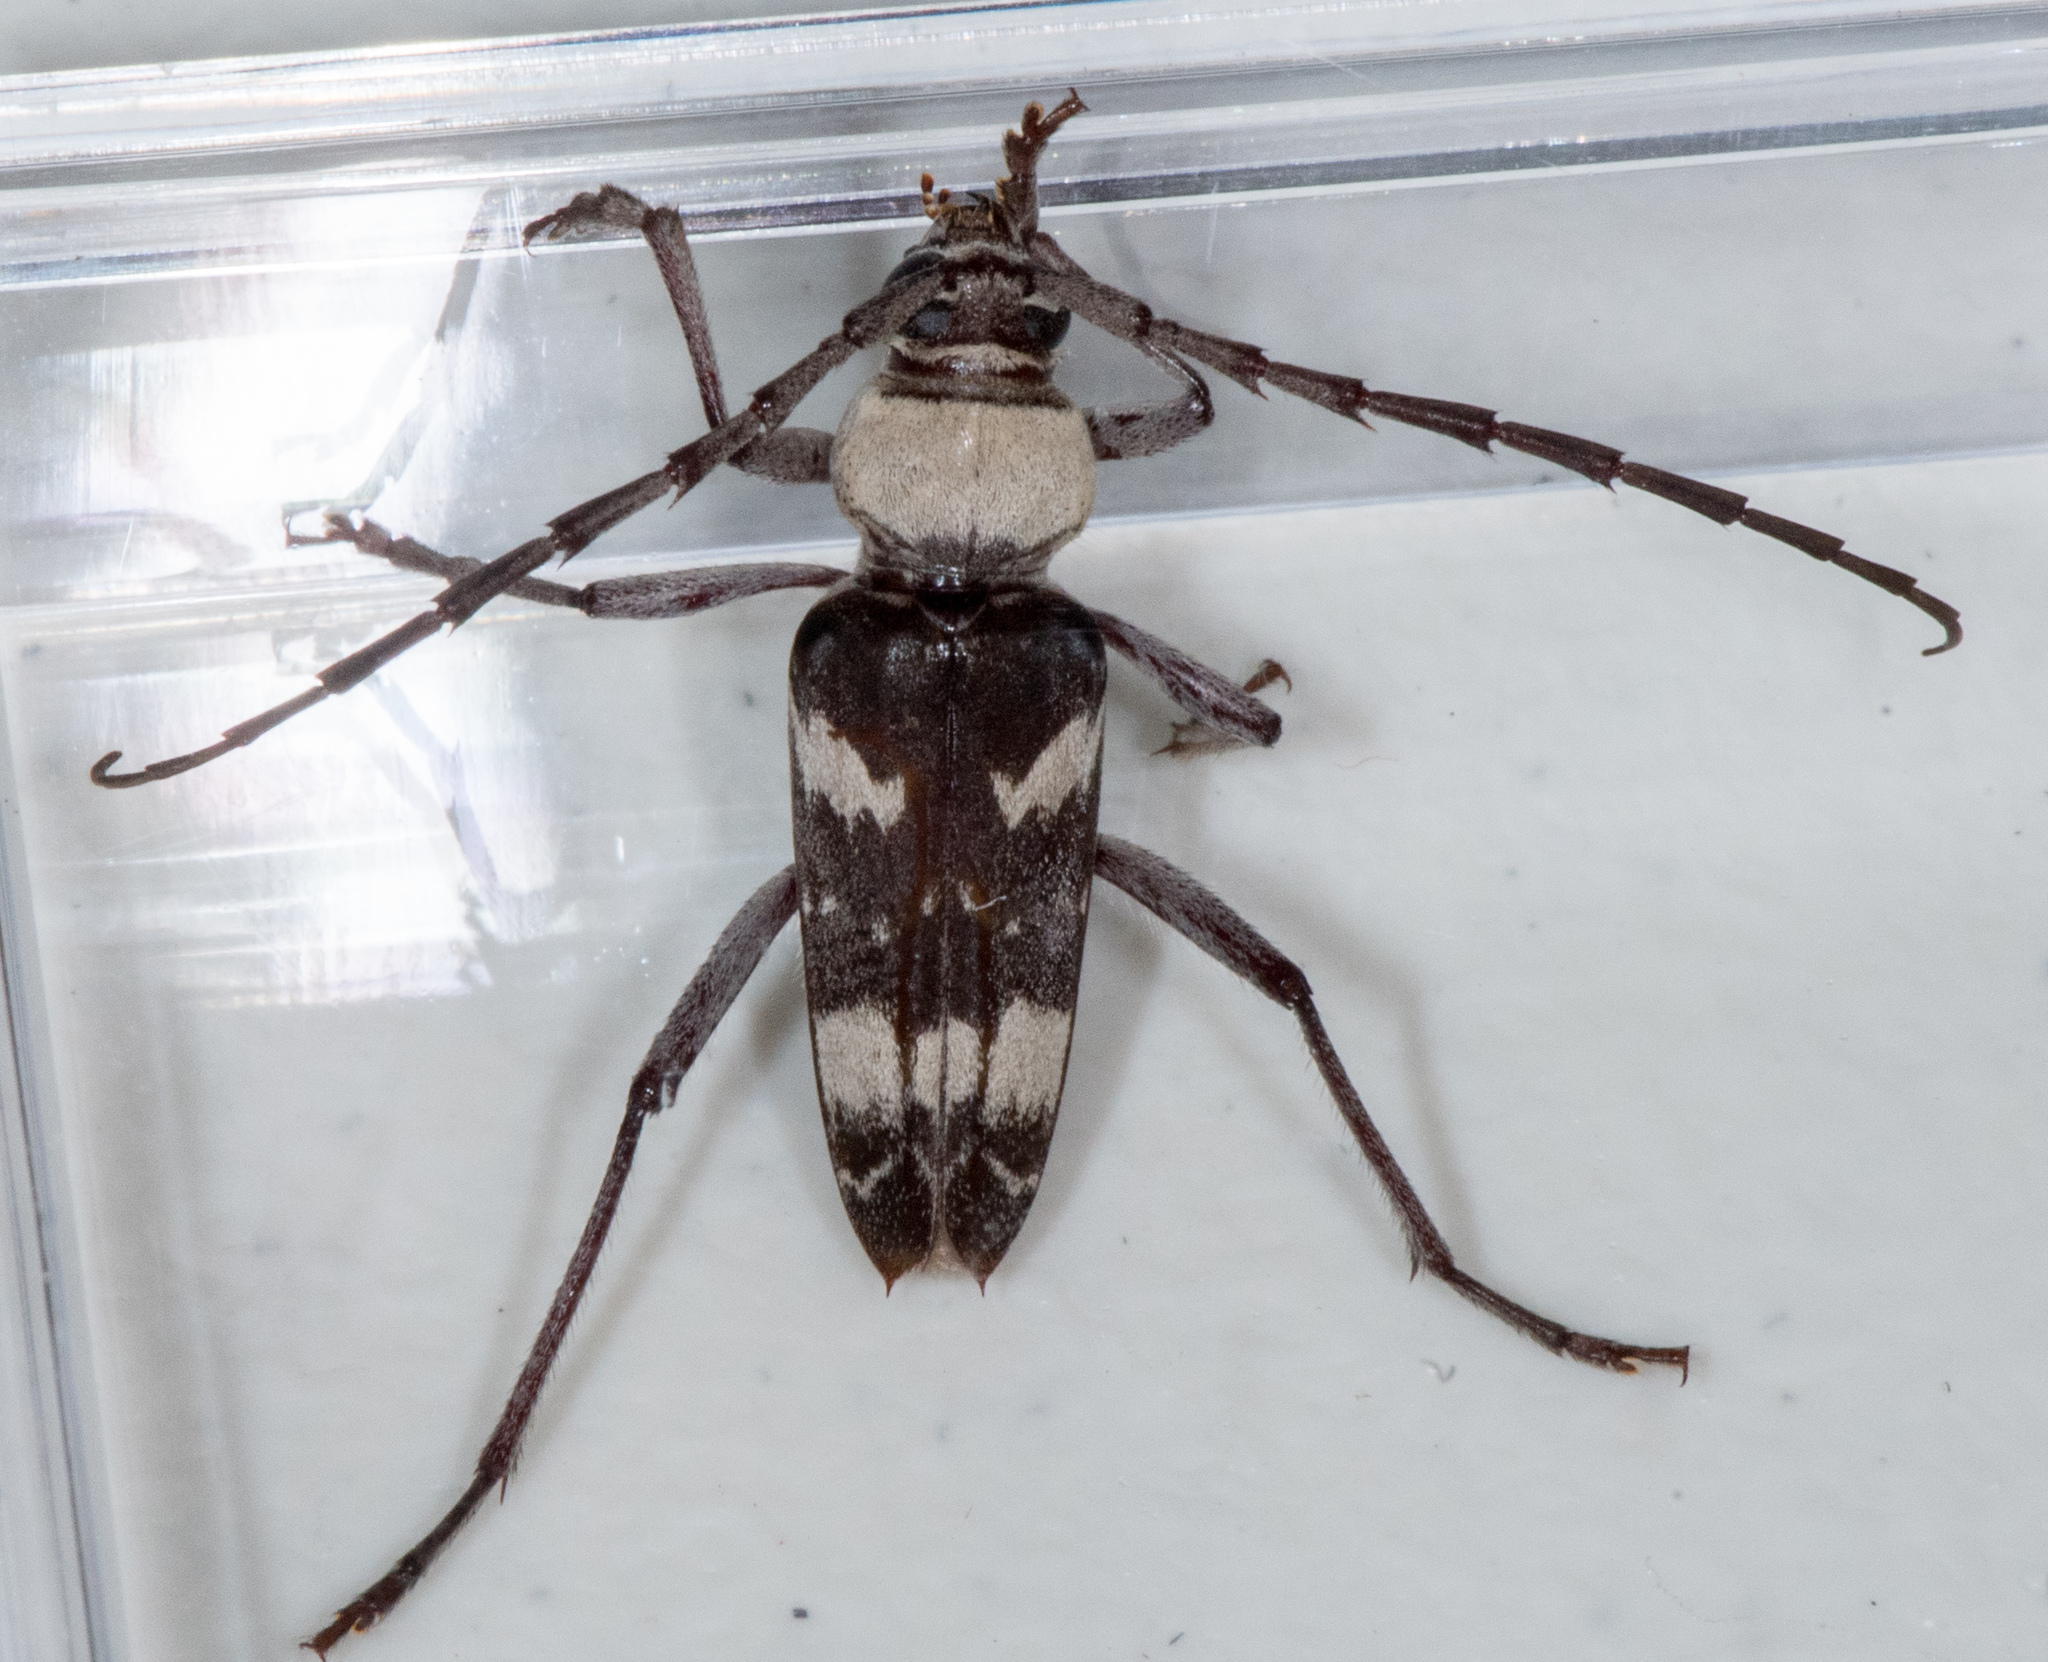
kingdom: Animalia
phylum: Arthropoda
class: Insecta
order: Coleoptera
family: Cerambycidae
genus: Megacyllene
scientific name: Megacyllene antennata
